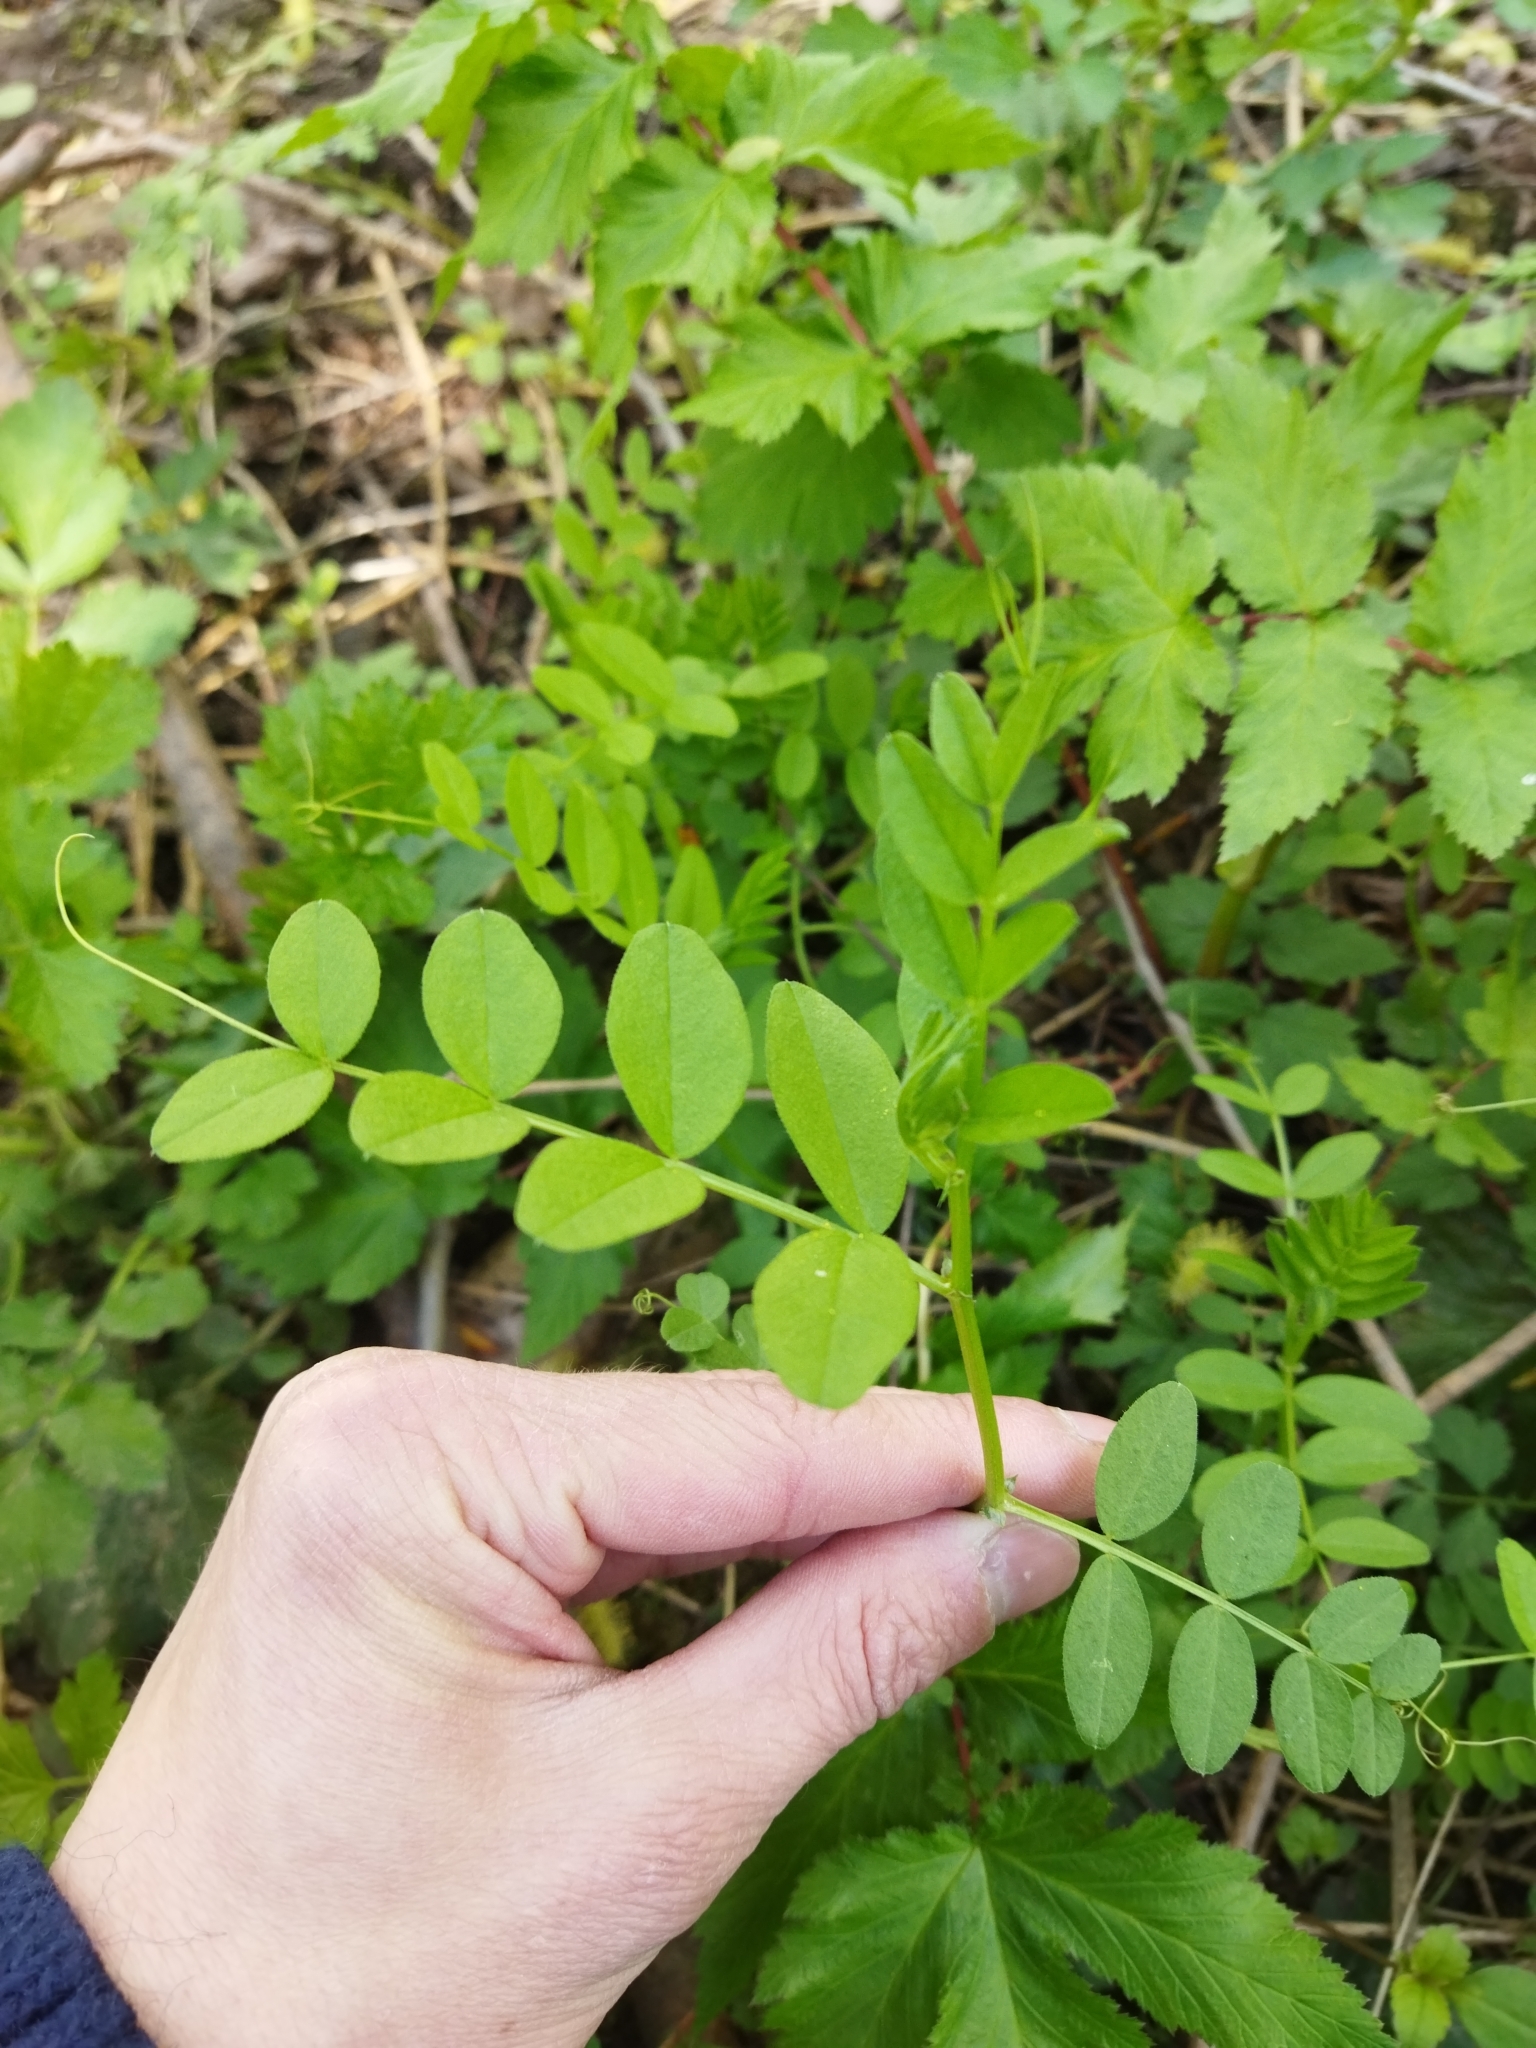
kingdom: Plantae
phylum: Tracheophyta
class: Magnoliopsida
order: Fabales
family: Fabaceae
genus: Vicia
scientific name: Vicia sepium
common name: Bush vetch
